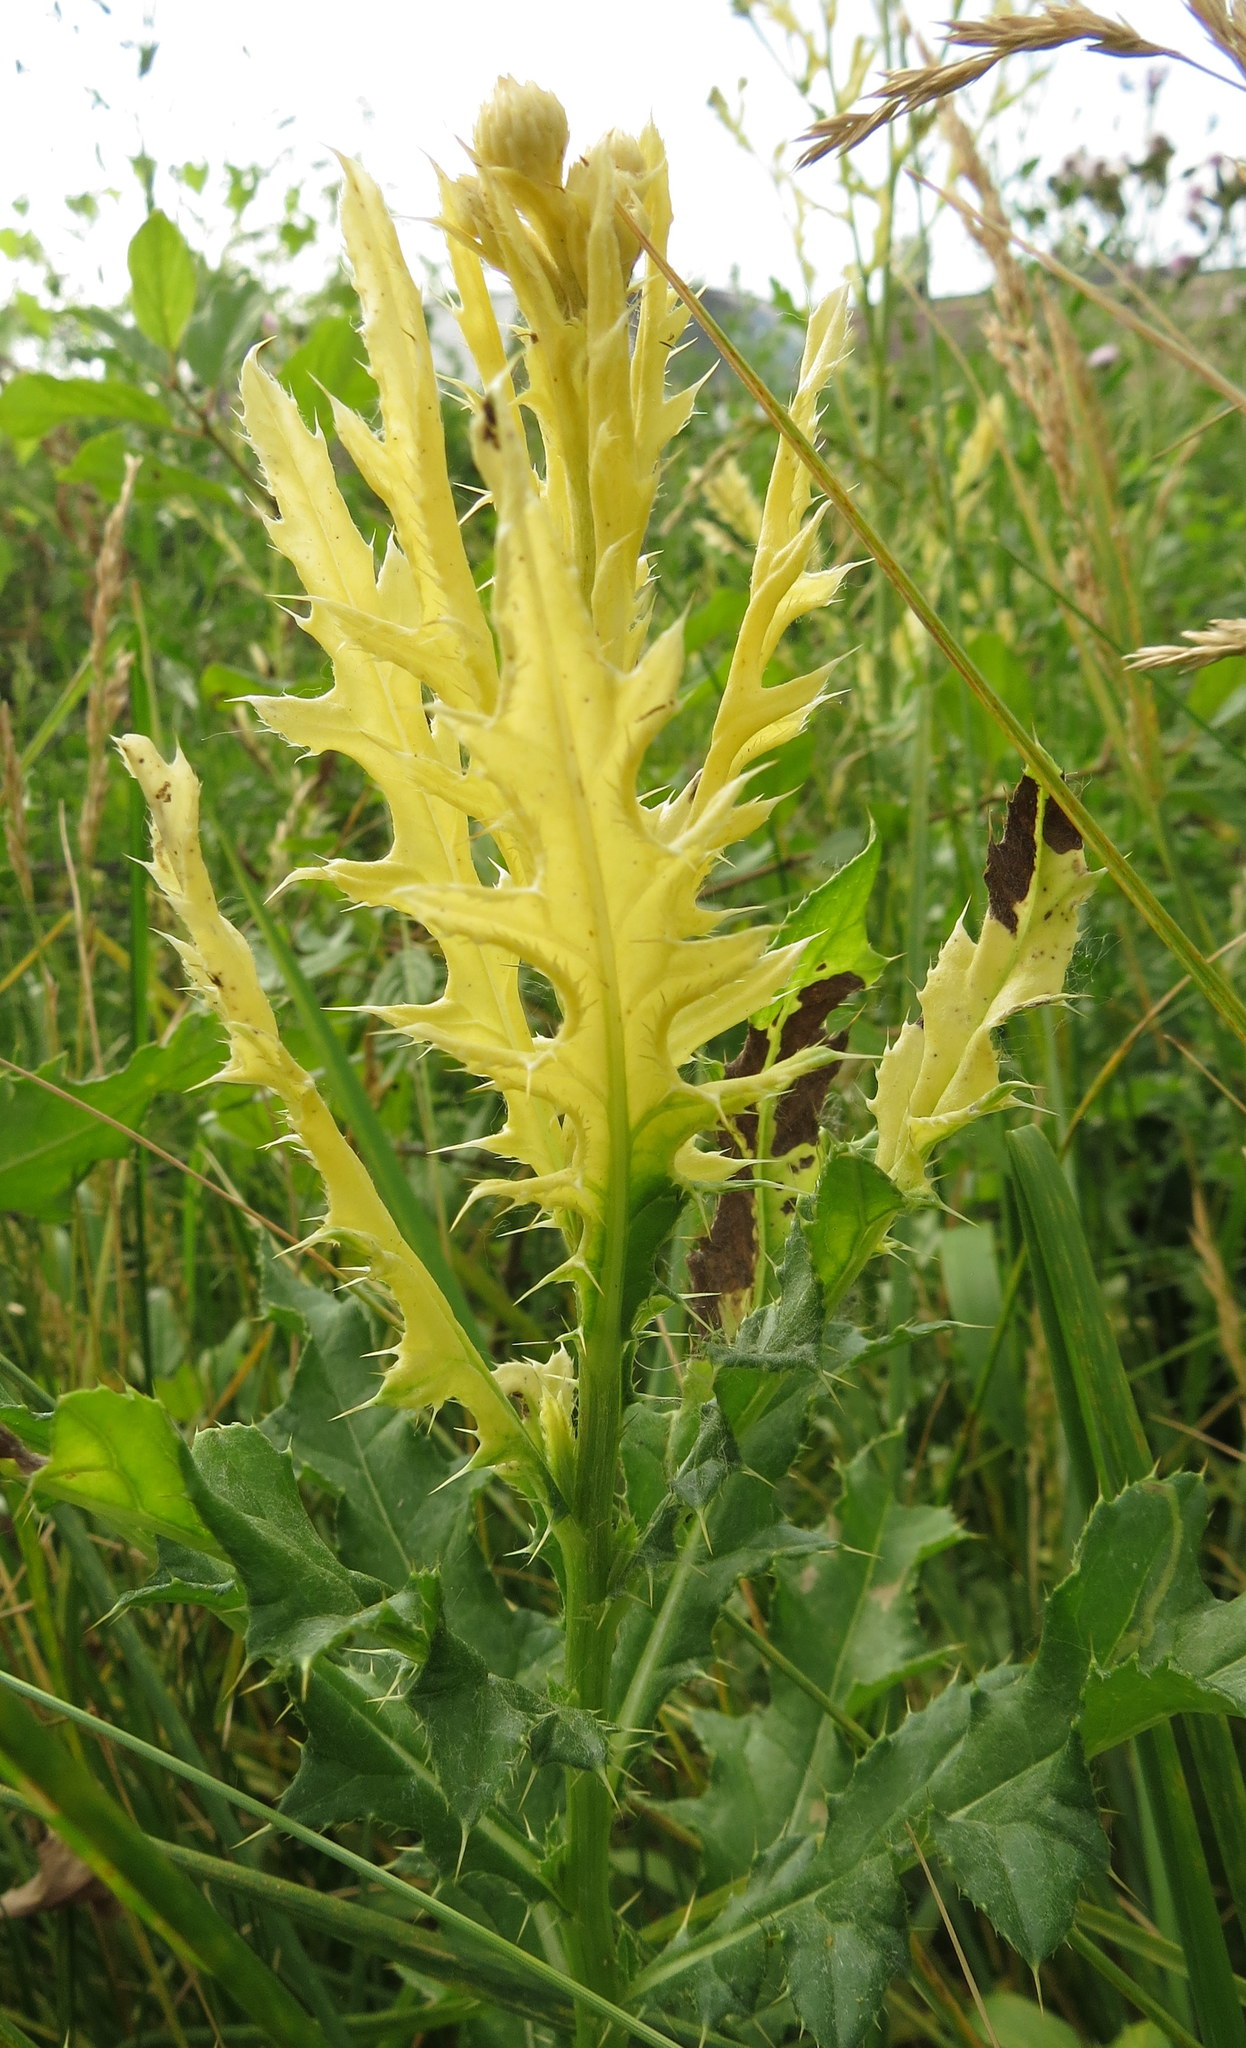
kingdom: Bacteria
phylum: Proteobacteria
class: Gammaproteobacteria
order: Pseudomonadales
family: Pseudomonadaceae
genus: Pseudomonas
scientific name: Pseudomonas syringae
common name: Bacterial speck
